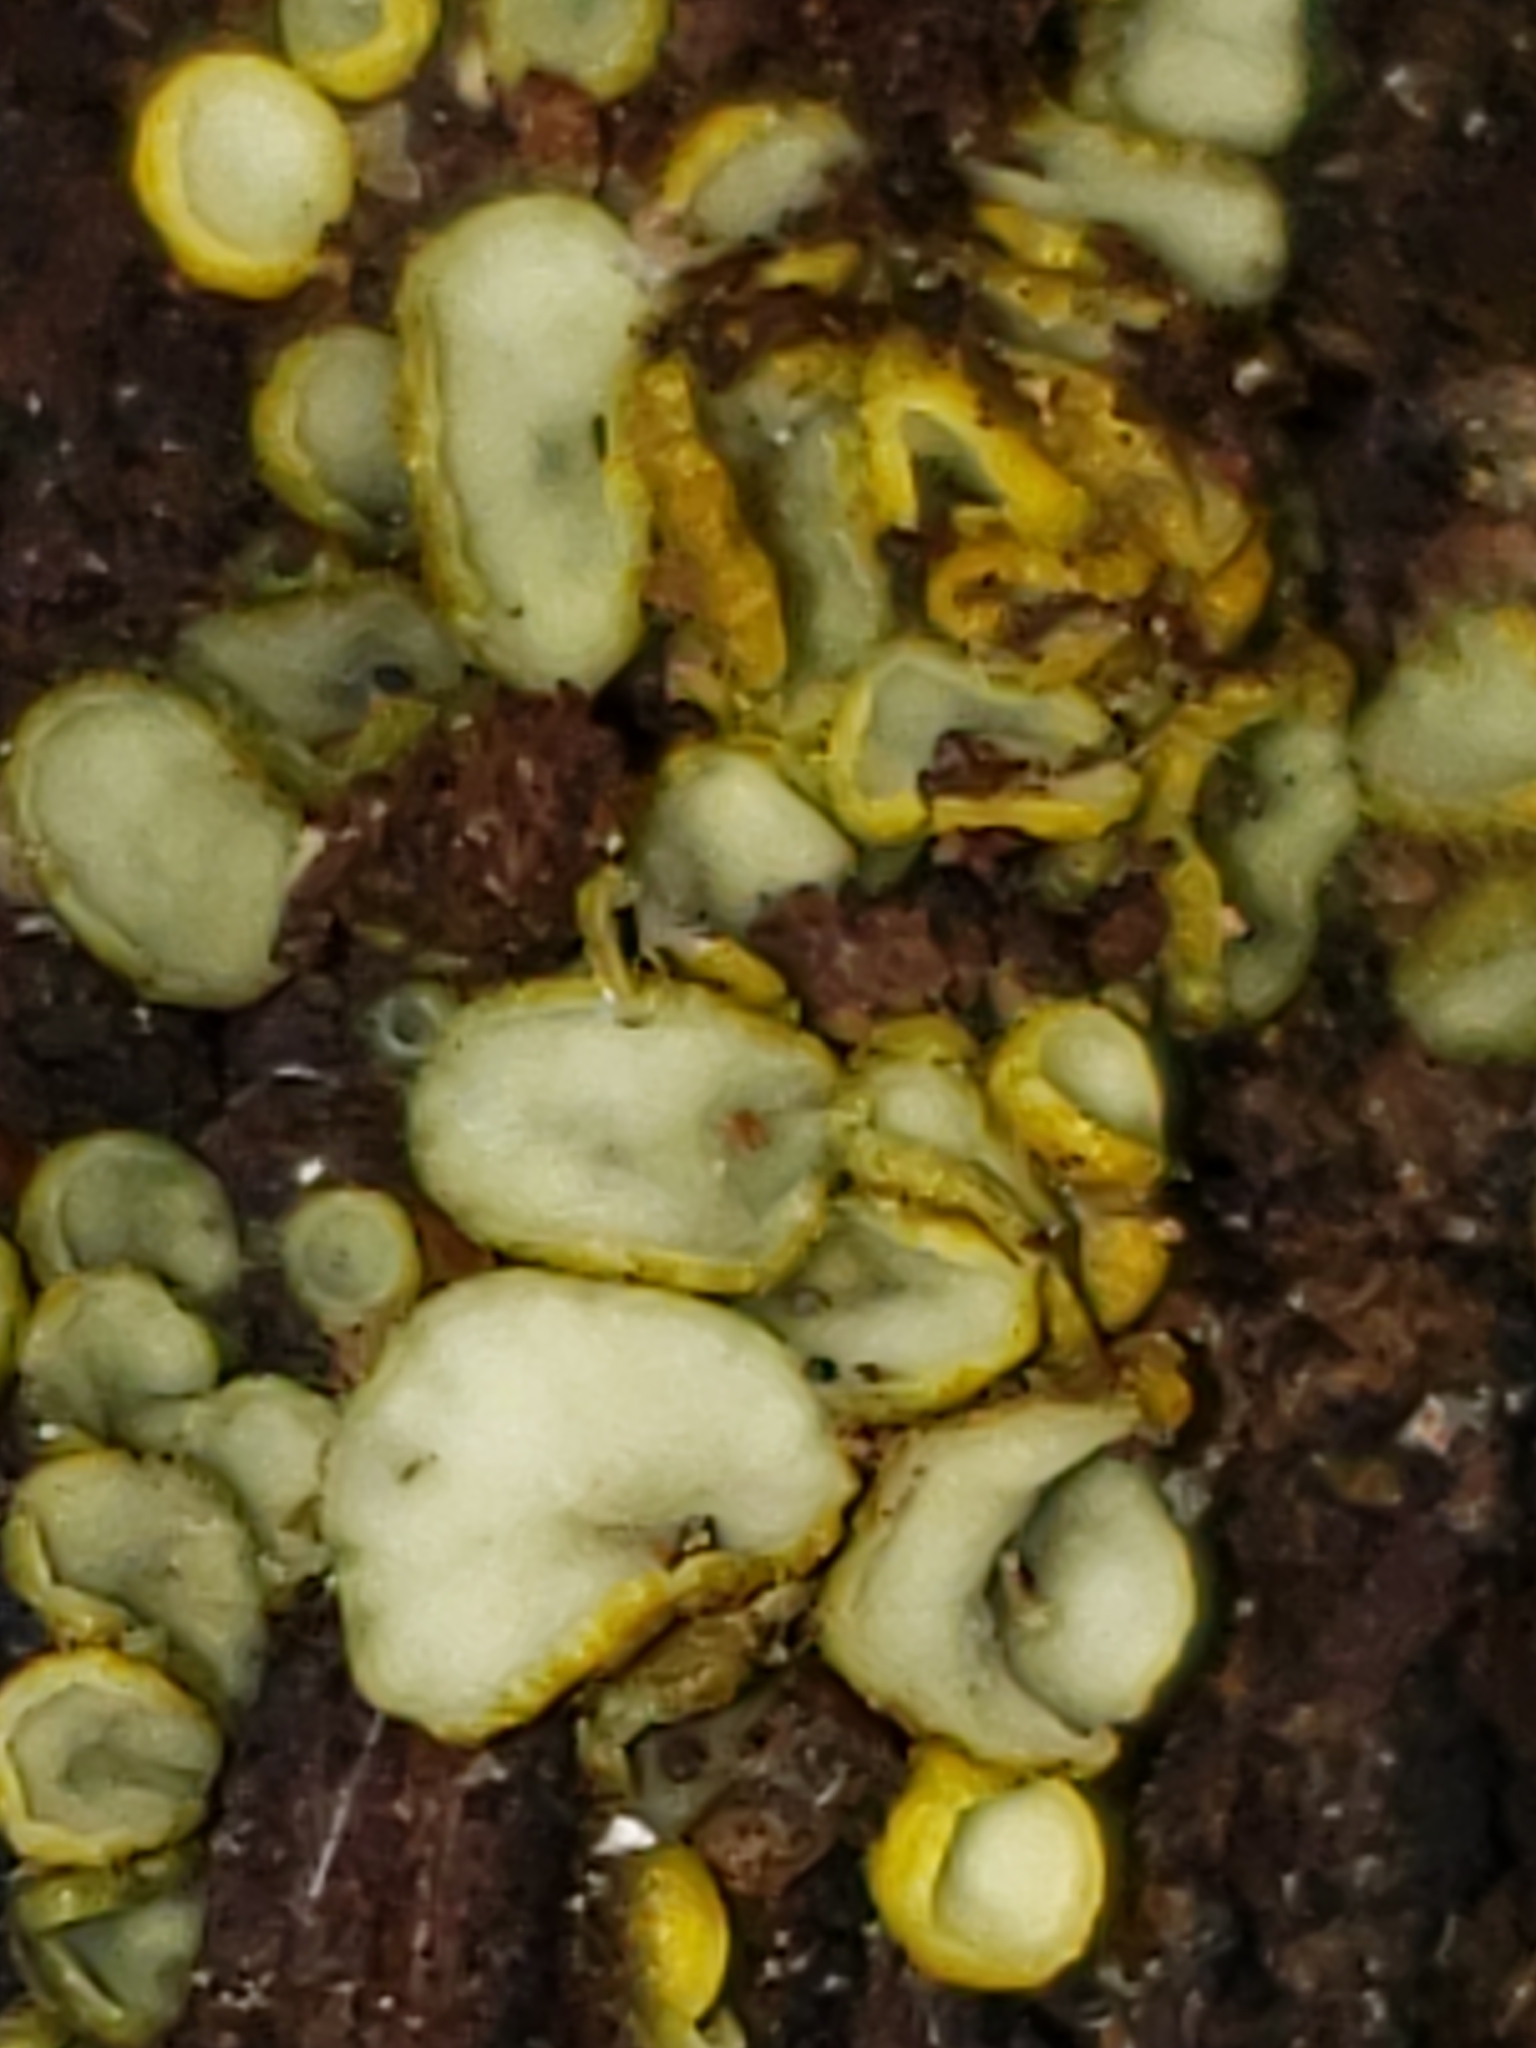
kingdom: Fungi
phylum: Ascomycota
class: Leotiomycetes
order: Helotiales
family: Chlorospleniaceae
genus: Chlorosplenium
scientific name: Chlorosplenium chlora
